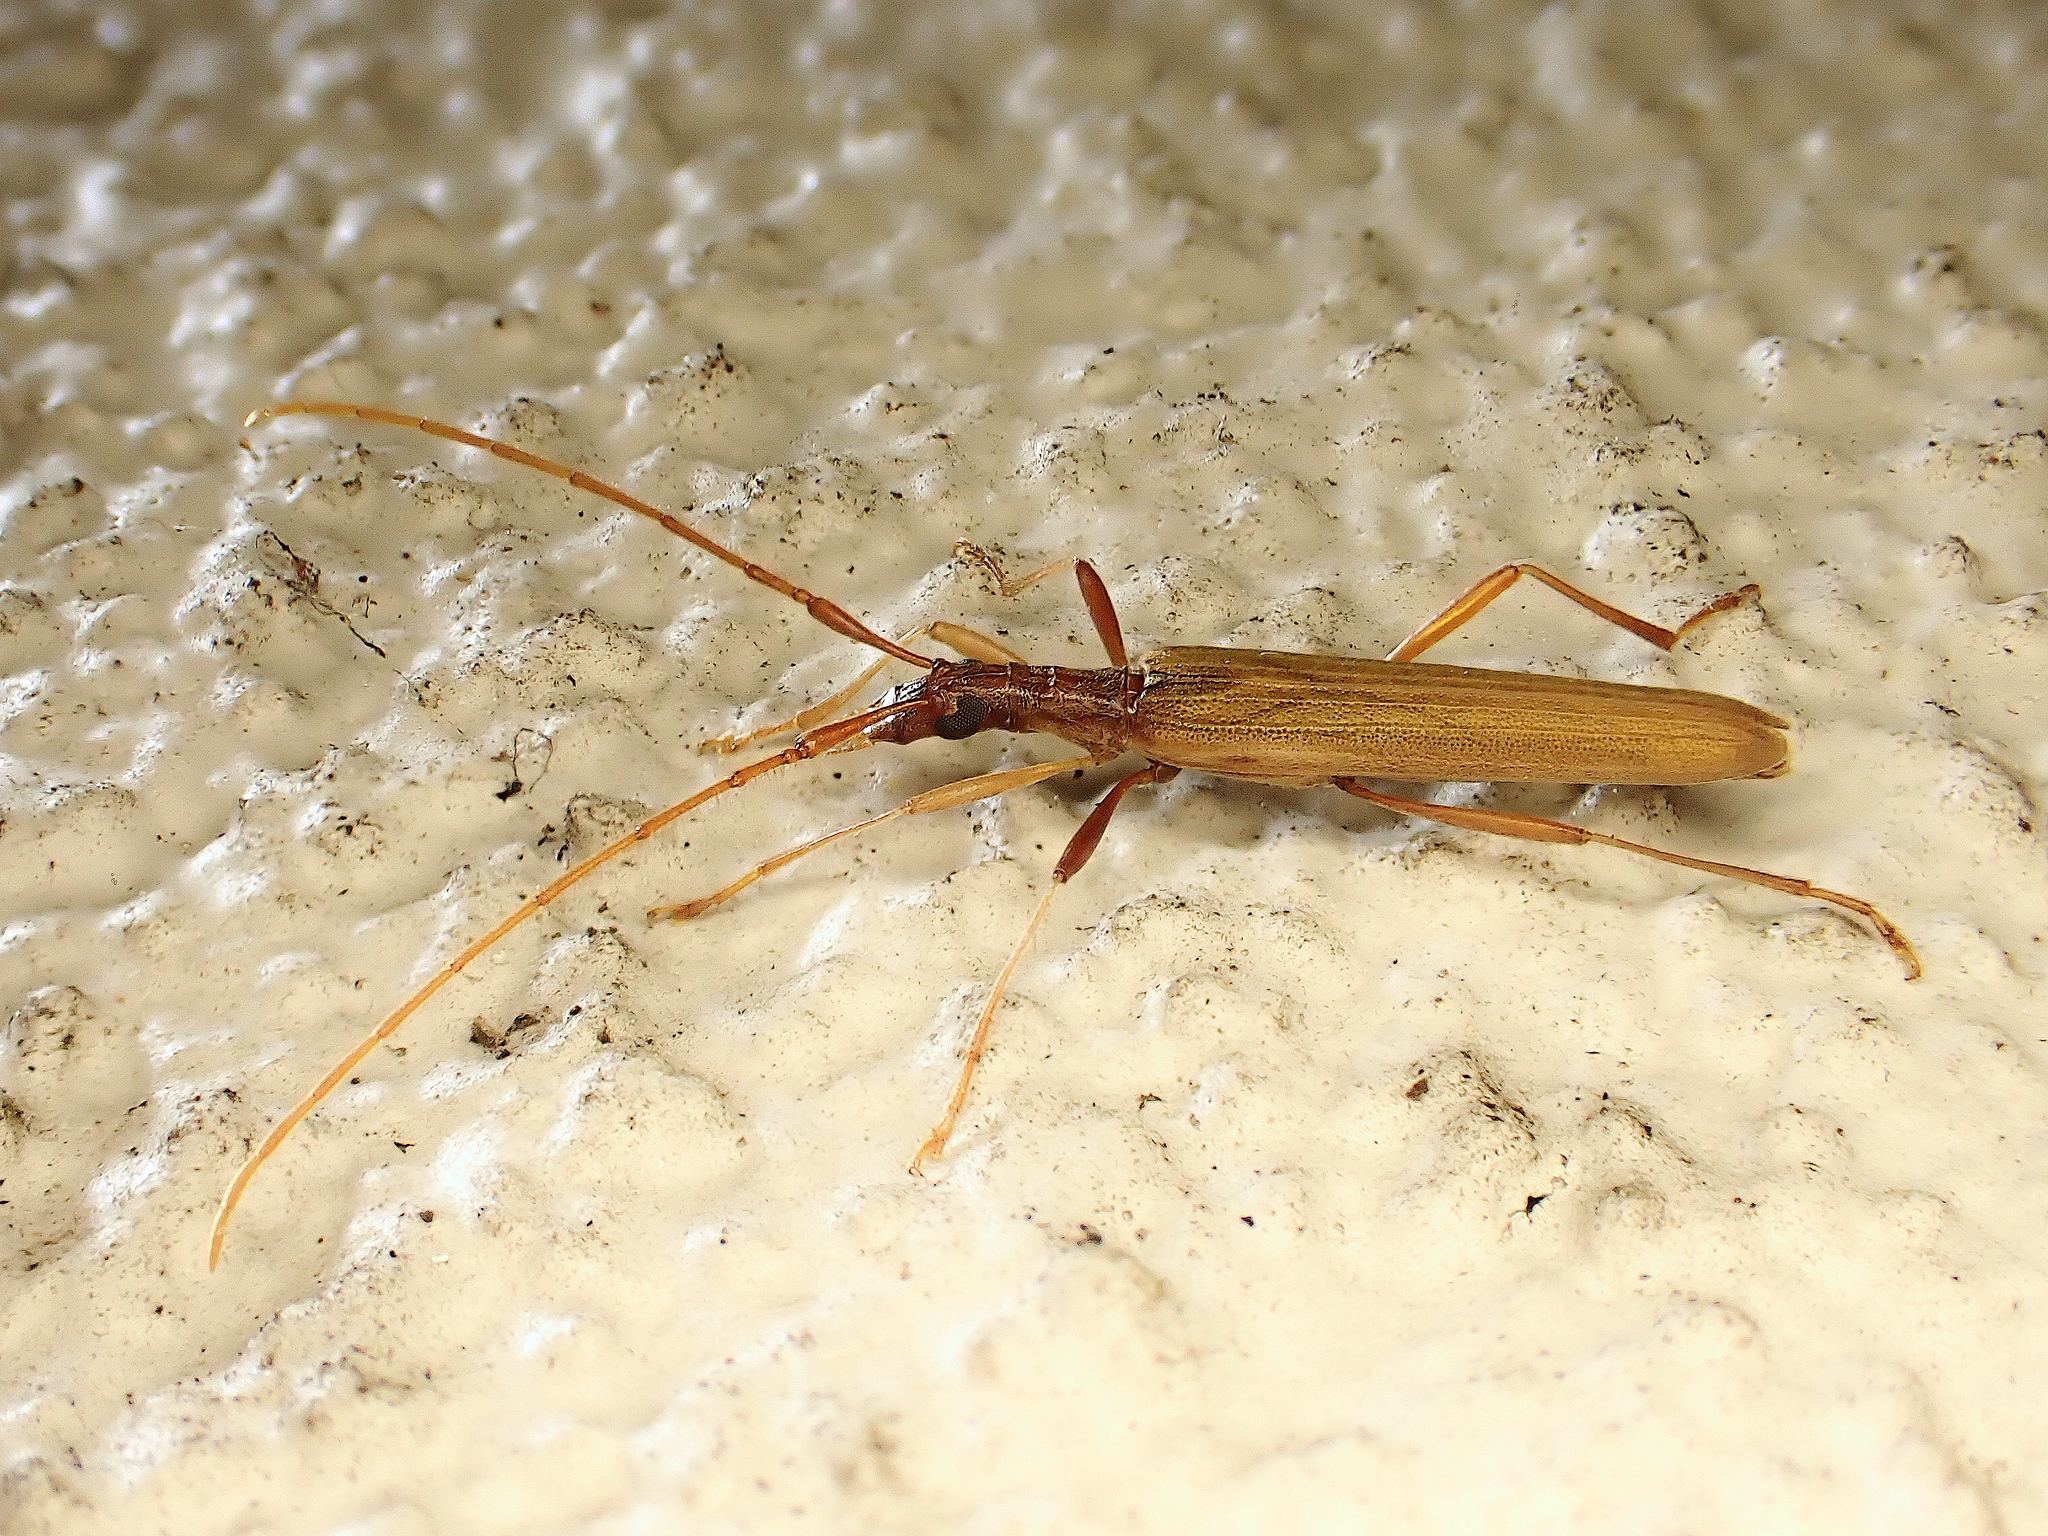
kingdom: Animalia
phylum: Arthropoda
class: Insecta
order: Coleoptera
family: Cerambycidae
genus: Stenopotes
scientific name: Stenopotes pallidus
